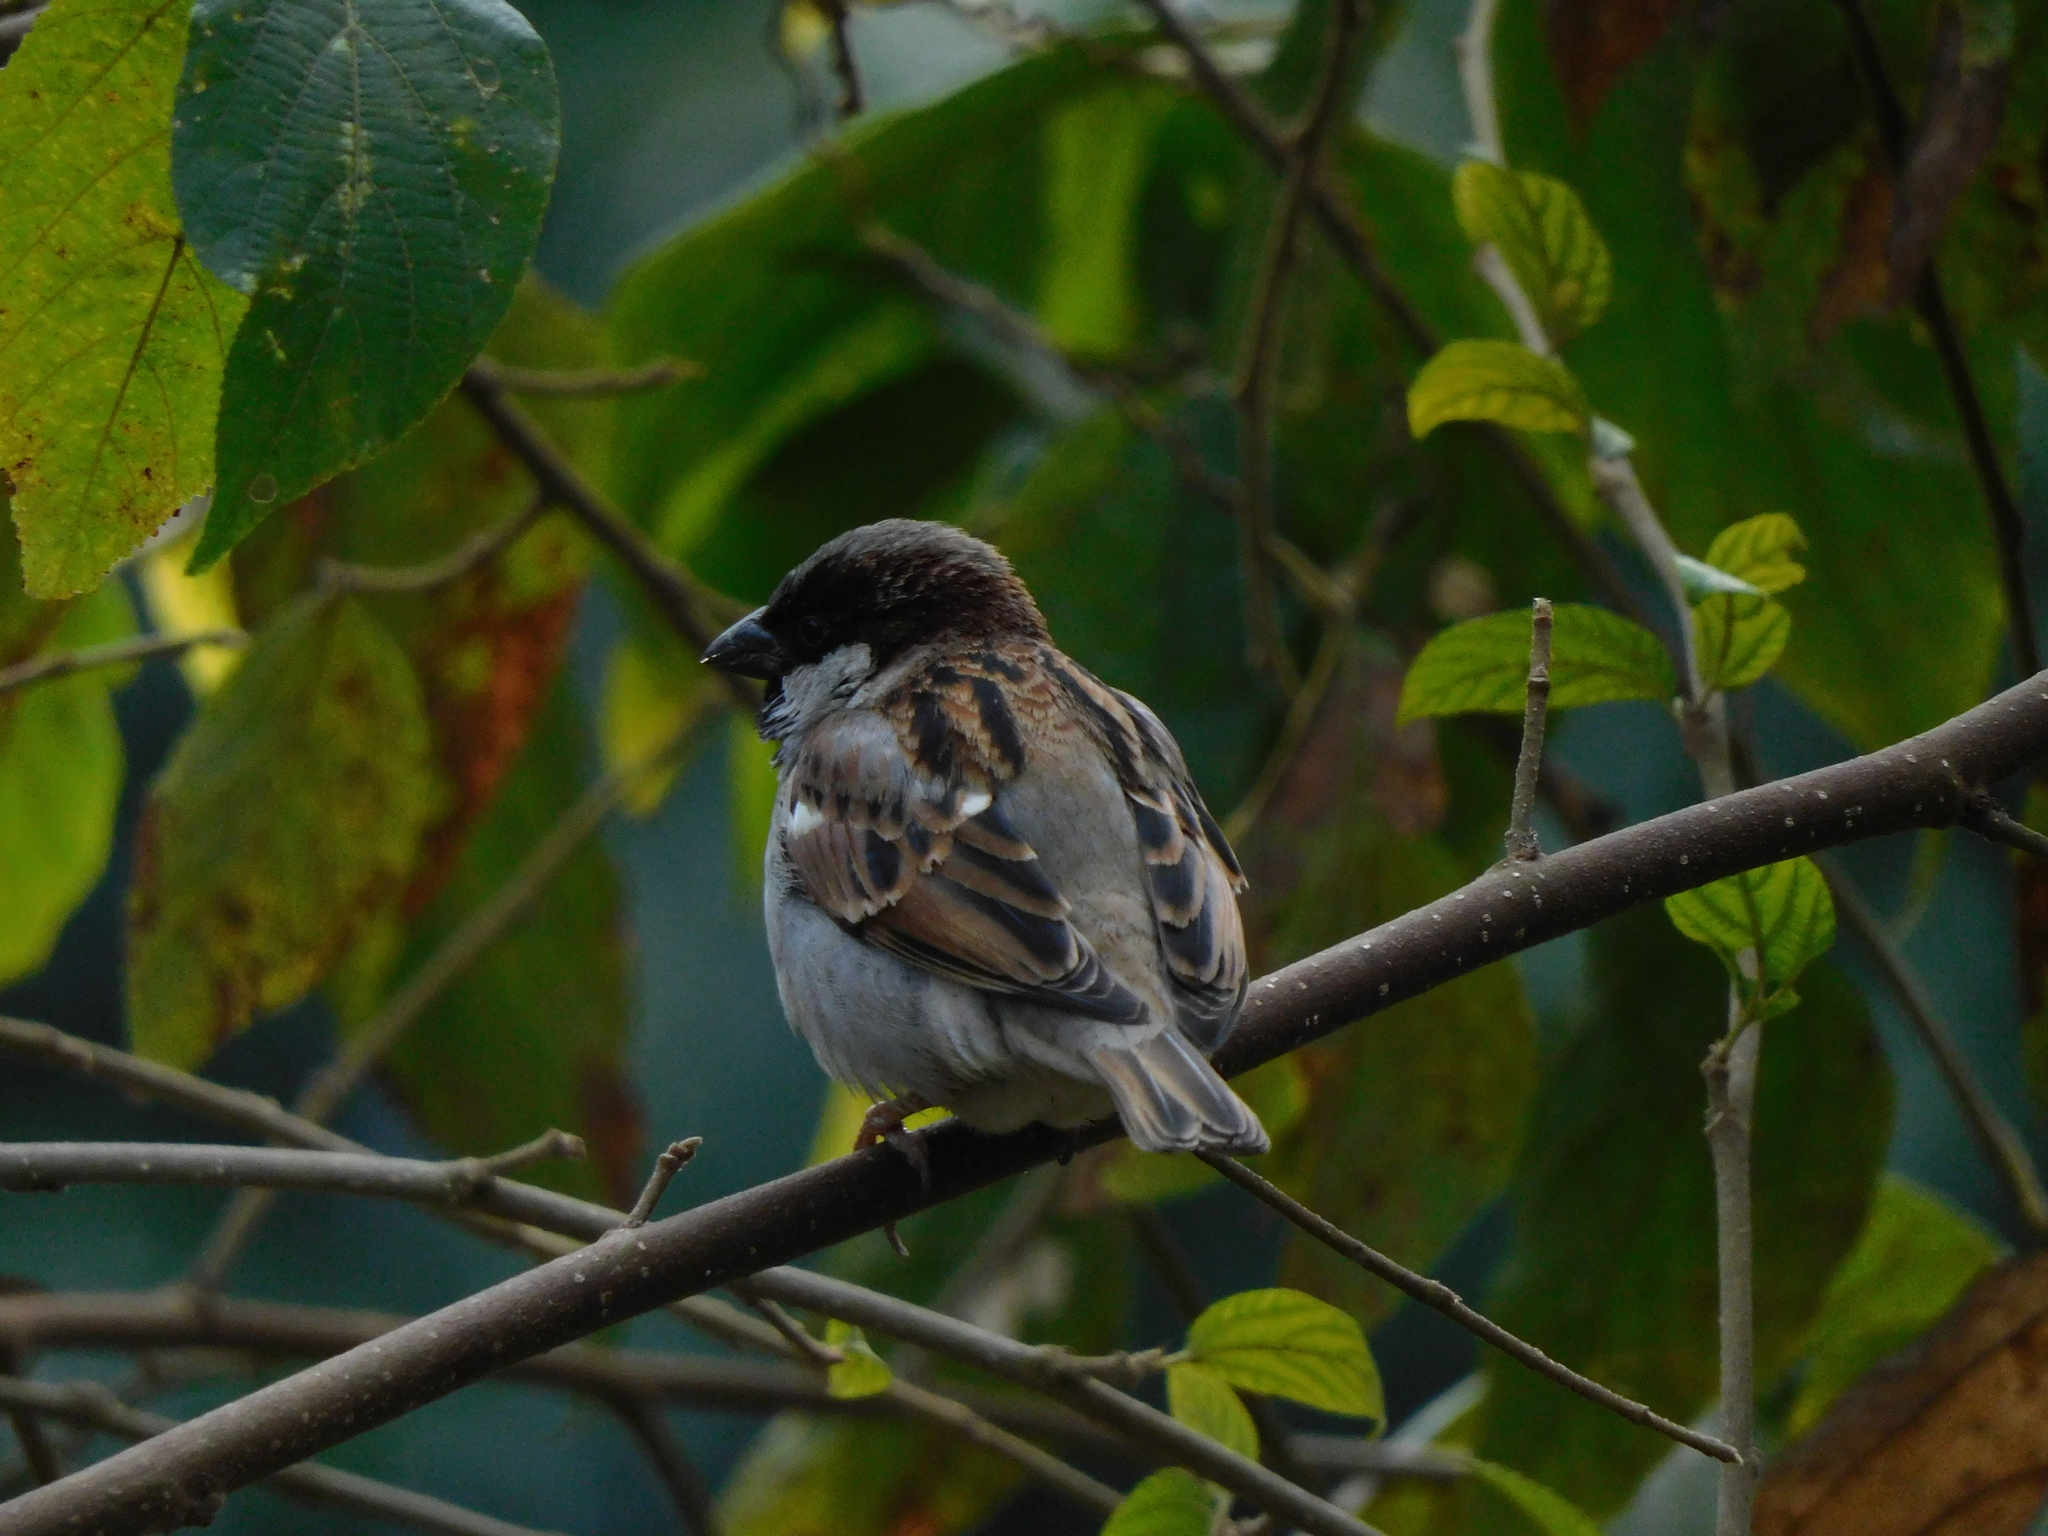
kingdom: Animalia
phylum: Chordata
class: Aves
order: Passeriformes
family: Passeridae
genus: Passer
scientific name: Passer domesticus
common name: House sparrow
